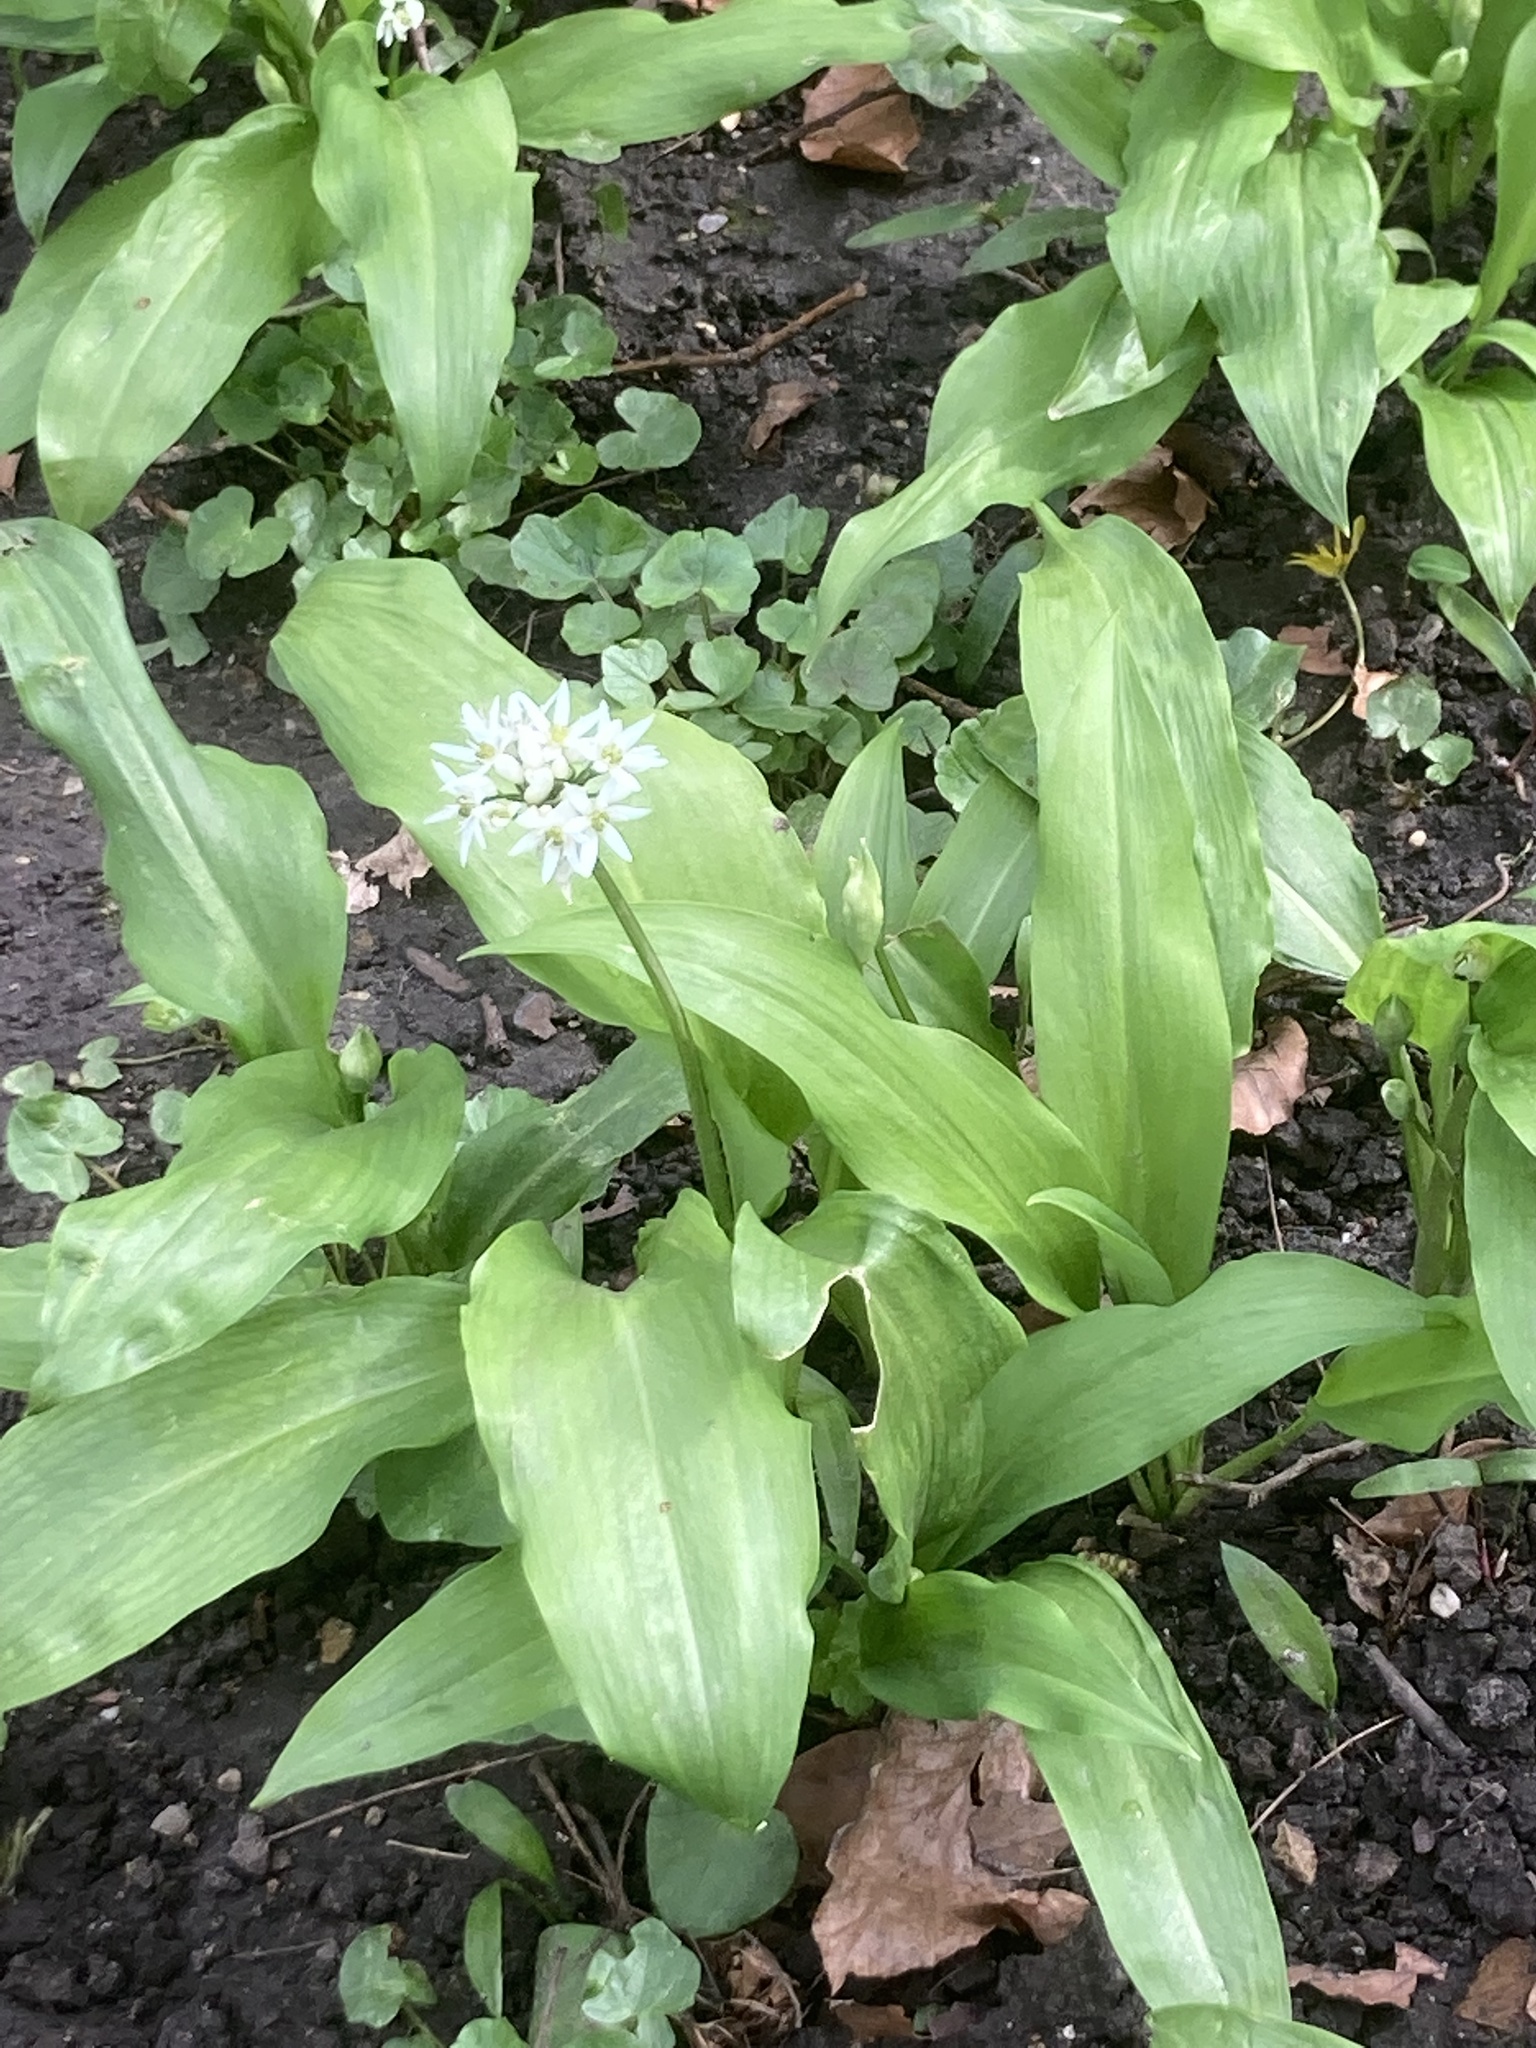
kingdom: Plantae
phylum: Tracheophyta
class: Liliopsida
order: Asparagales
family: Amaryllidaceae
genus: Allium
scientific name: Allium ursinum
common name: Ramsons
